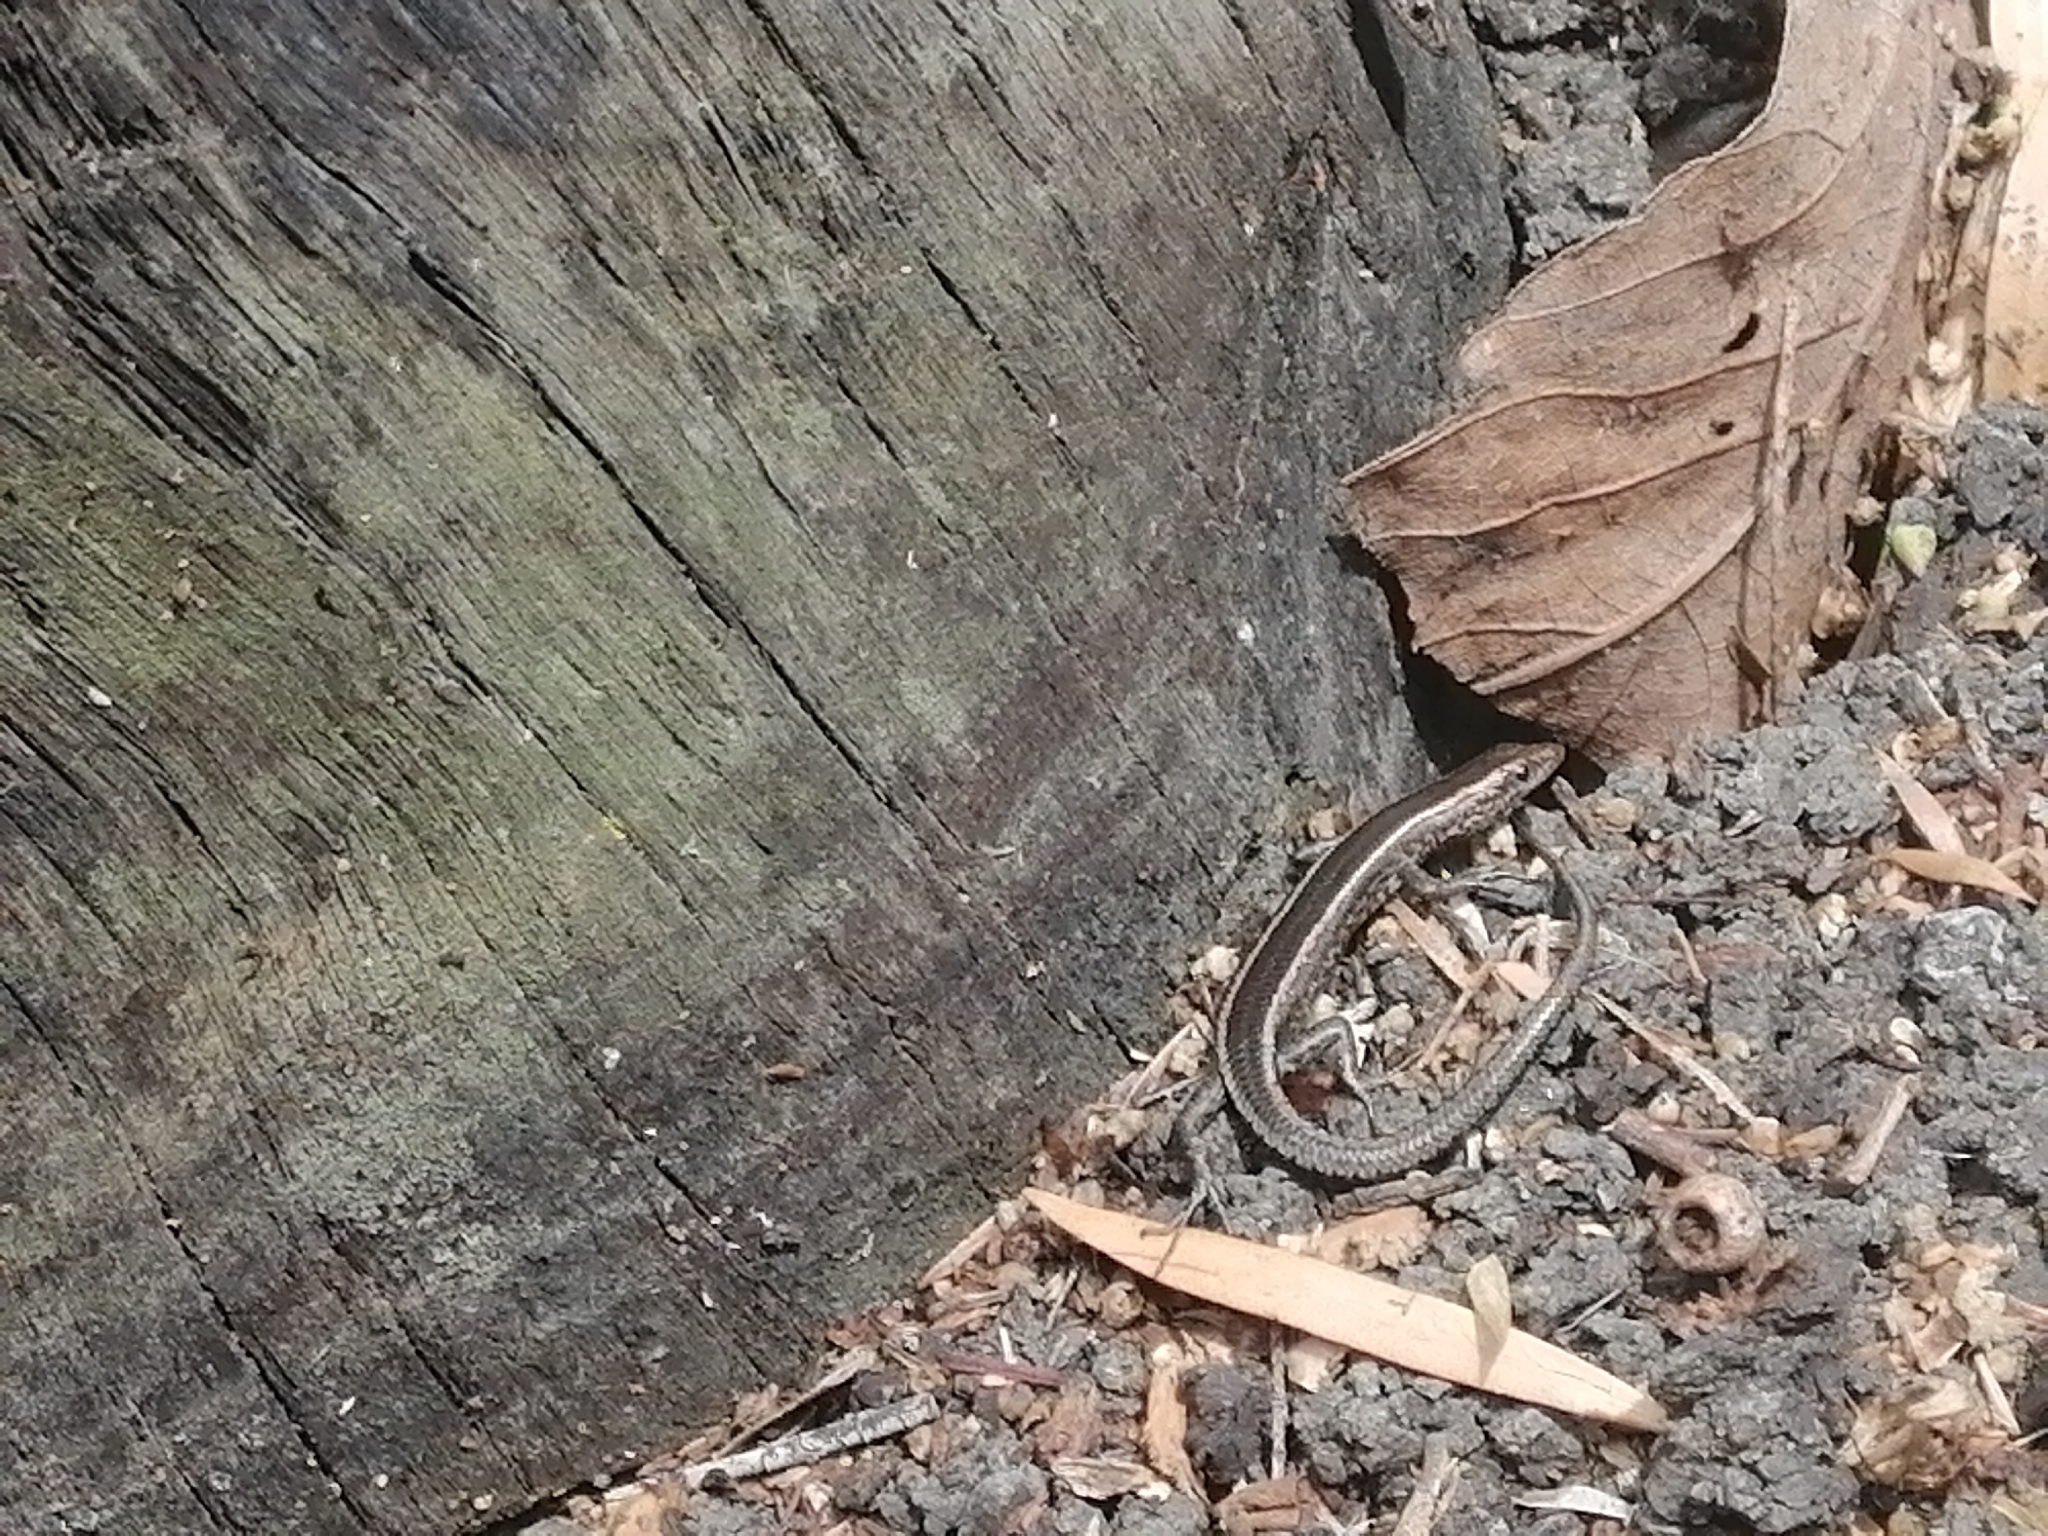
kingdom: Animalia
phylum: Chordata
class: Squamata
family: Scincidae
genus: Cryptoblepharus
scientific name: Cryptoblepharus pulcher
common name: Elegant snake-eyed skink
